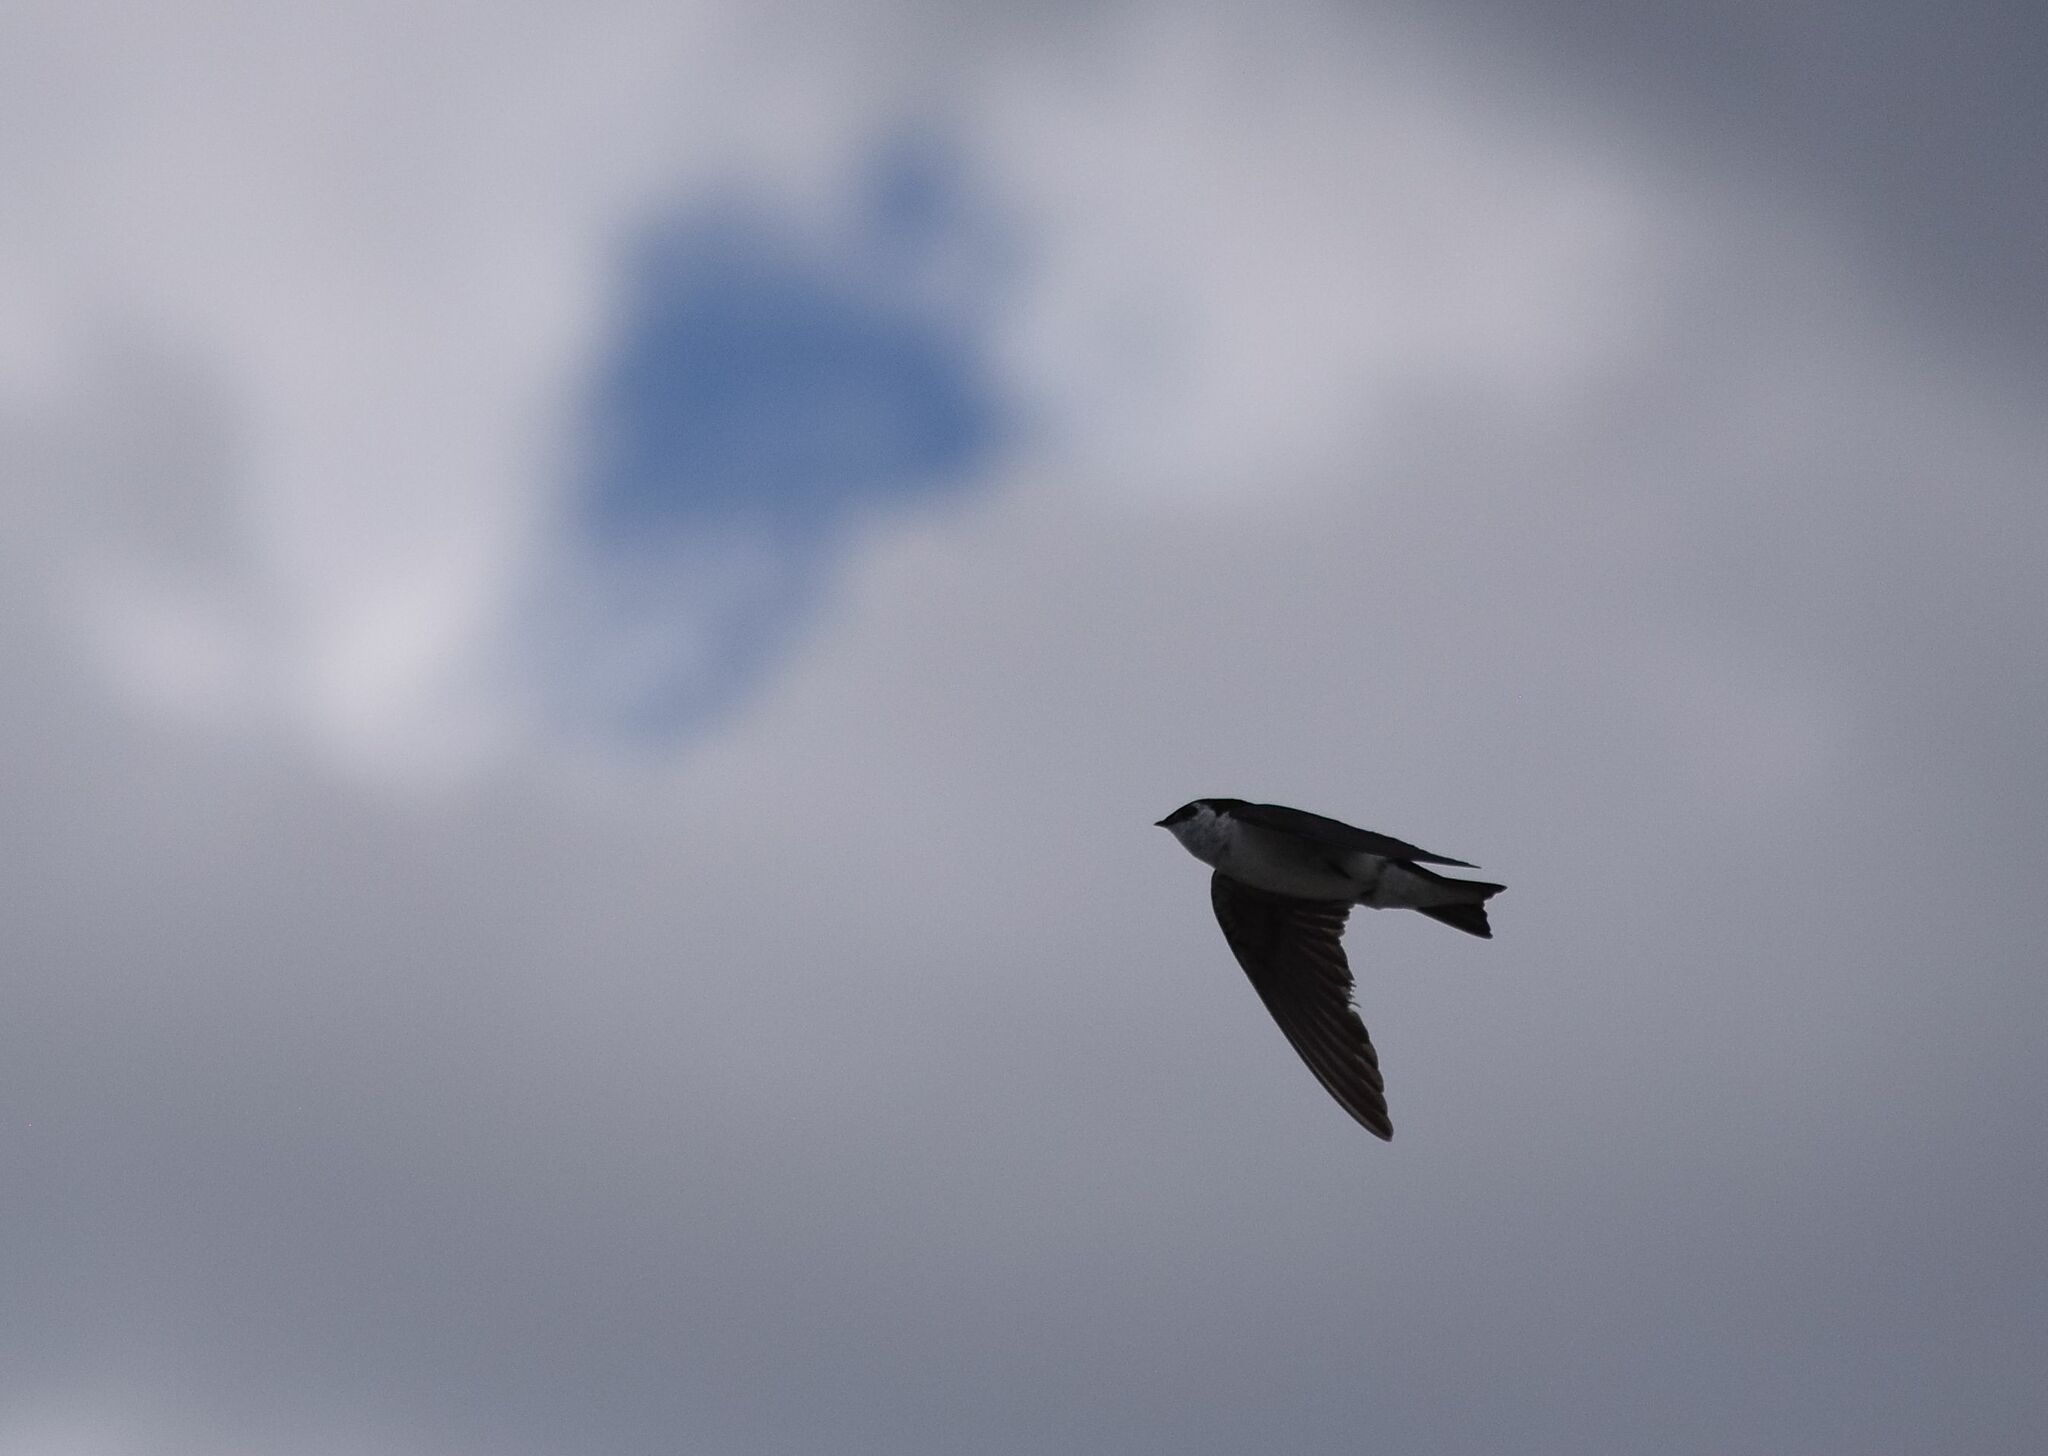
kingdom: Animalia
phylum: Chordata
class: Aves
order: Passeriformes
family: Hirundinidae
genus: Tachycineta
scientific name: Tachycineta thalassina
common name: Violet-green swallow
